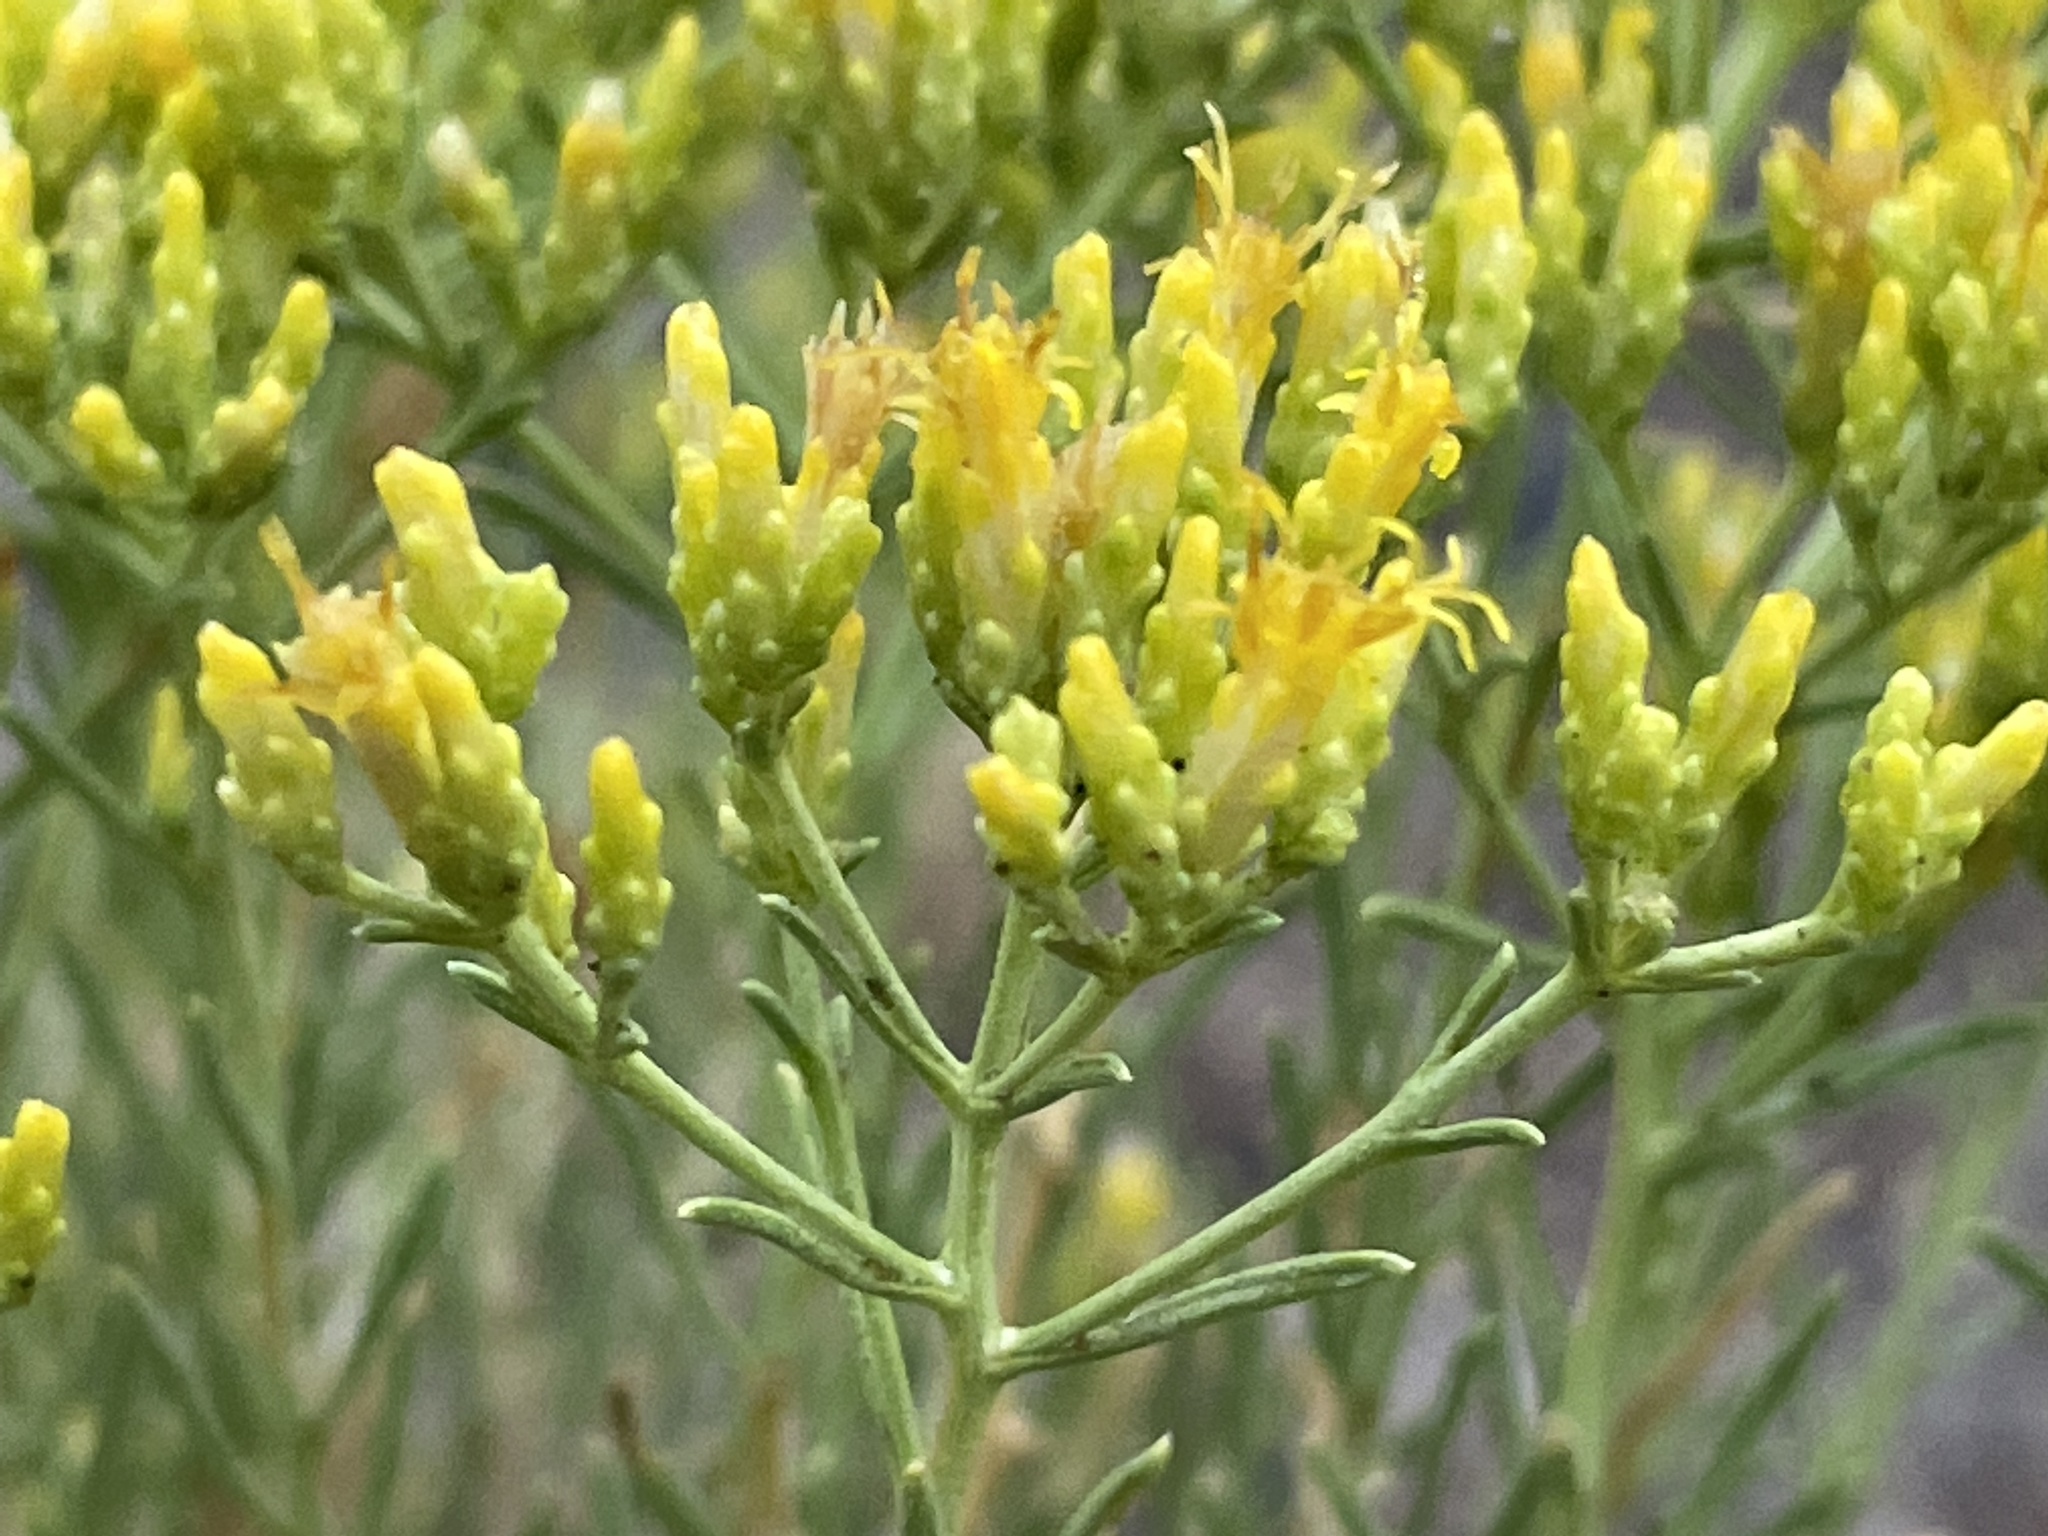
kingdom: Plantae
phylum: Tracheophyta
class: Magnoliopsida
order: Asterales
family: Asteraceae
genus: Chrysothamnus
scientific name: Chrysothamnus viscidiflorus
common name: Yellow rabbitbrush
